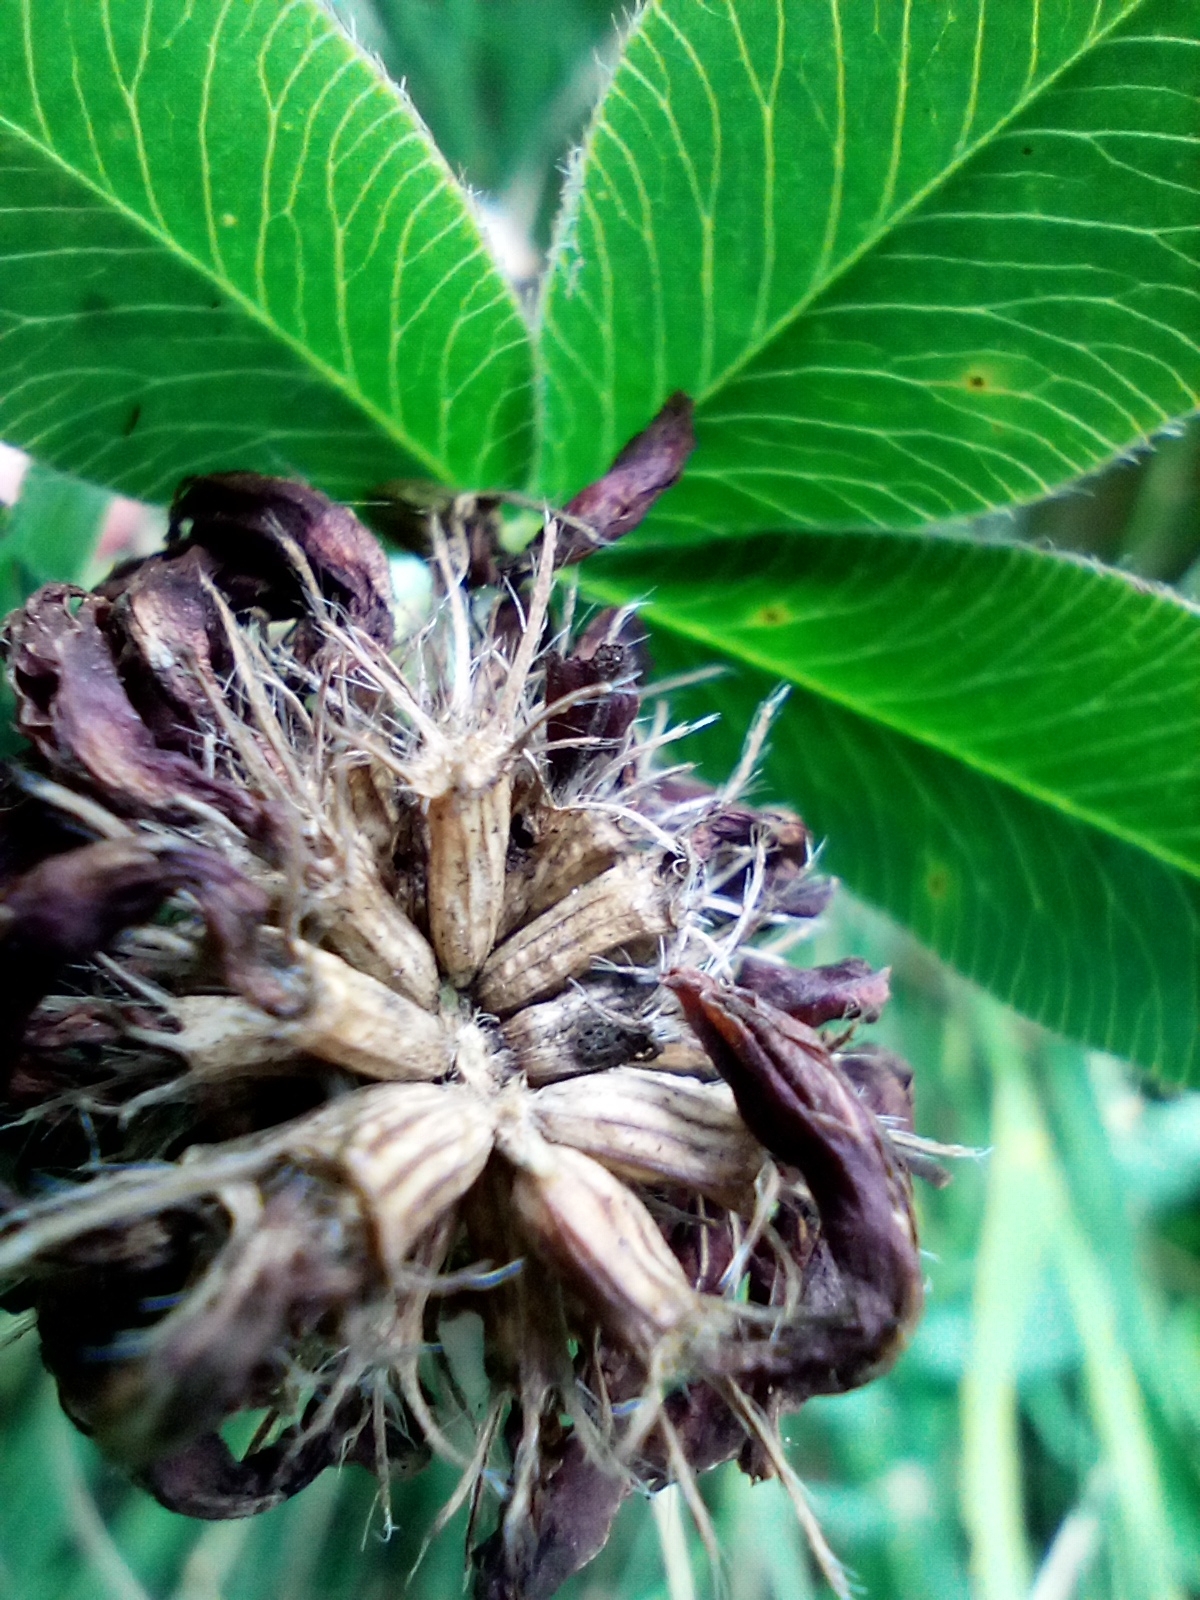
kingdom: Plantae
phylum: Tracheophyta
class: Magnoliopsida
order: Fabales
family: Fabaceae
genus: Trifolium
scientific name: Trifolium medium
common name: Zigzag clover
